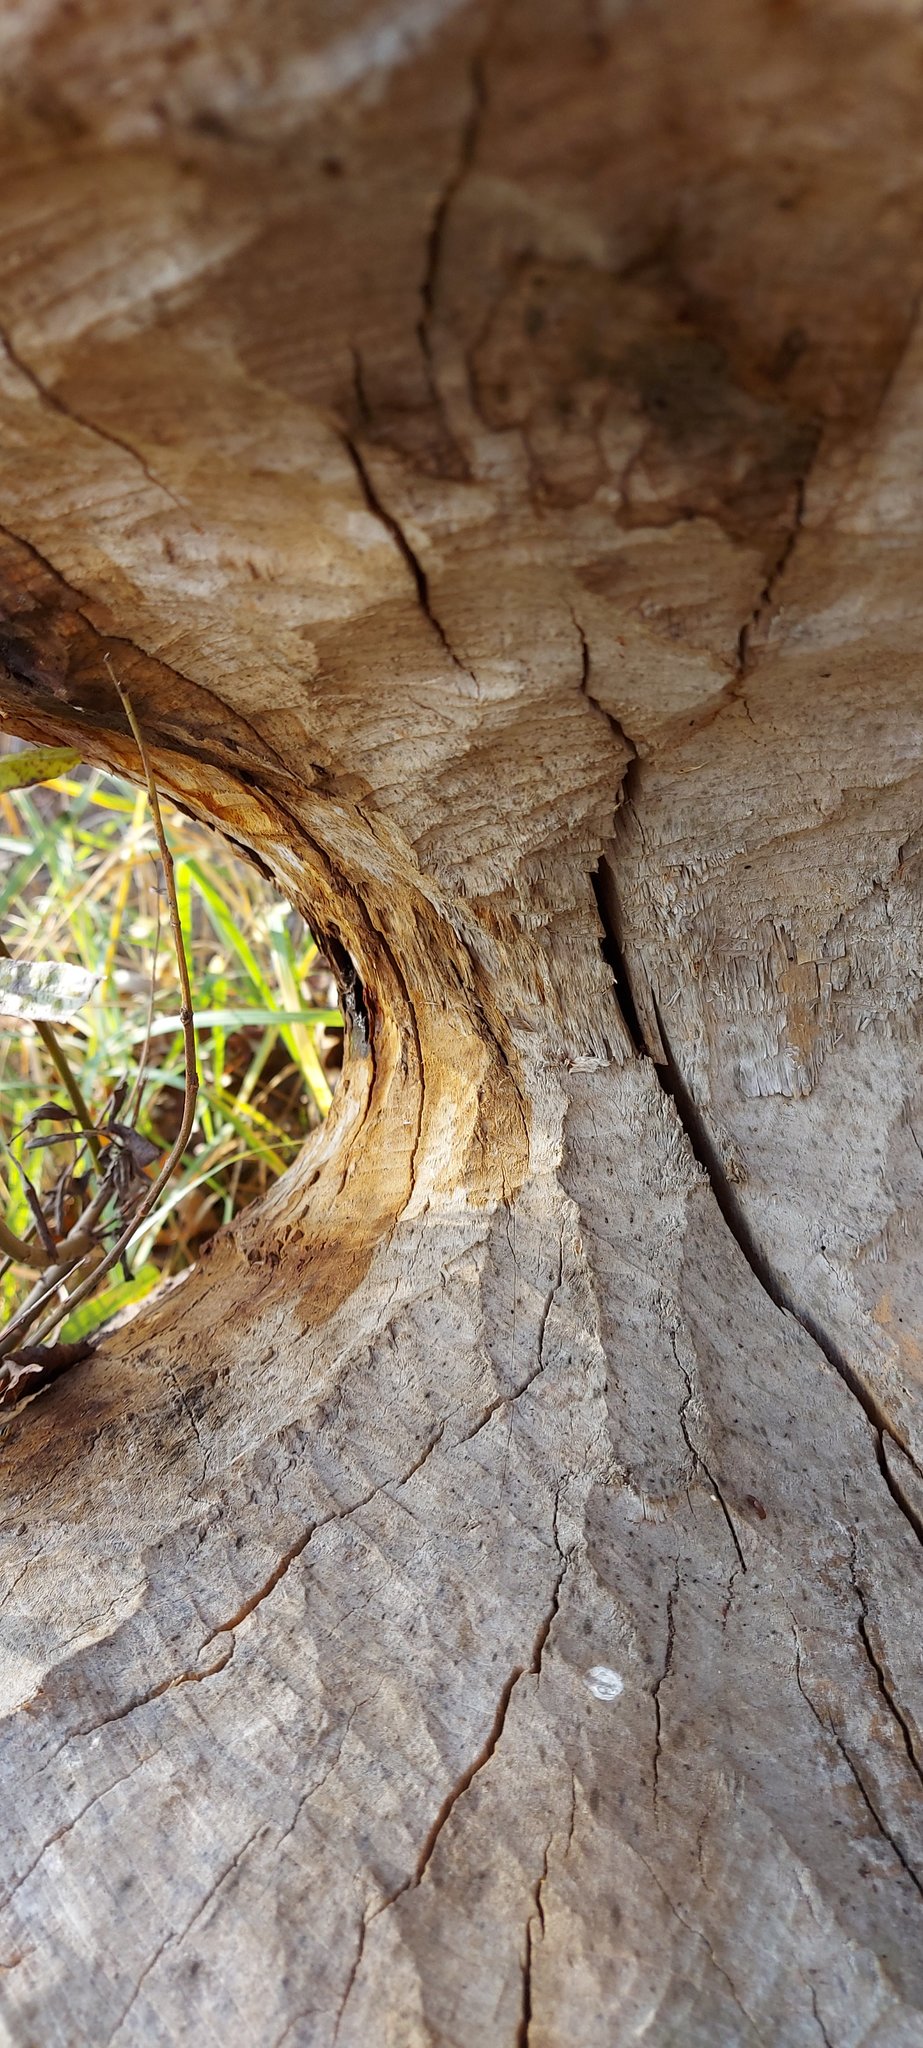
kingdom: Animalia
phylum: Chordata
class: Mammalia
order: Rodentia
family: Castoridae
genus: Castor
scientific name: Castor fiber
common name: Eurasian beaver
